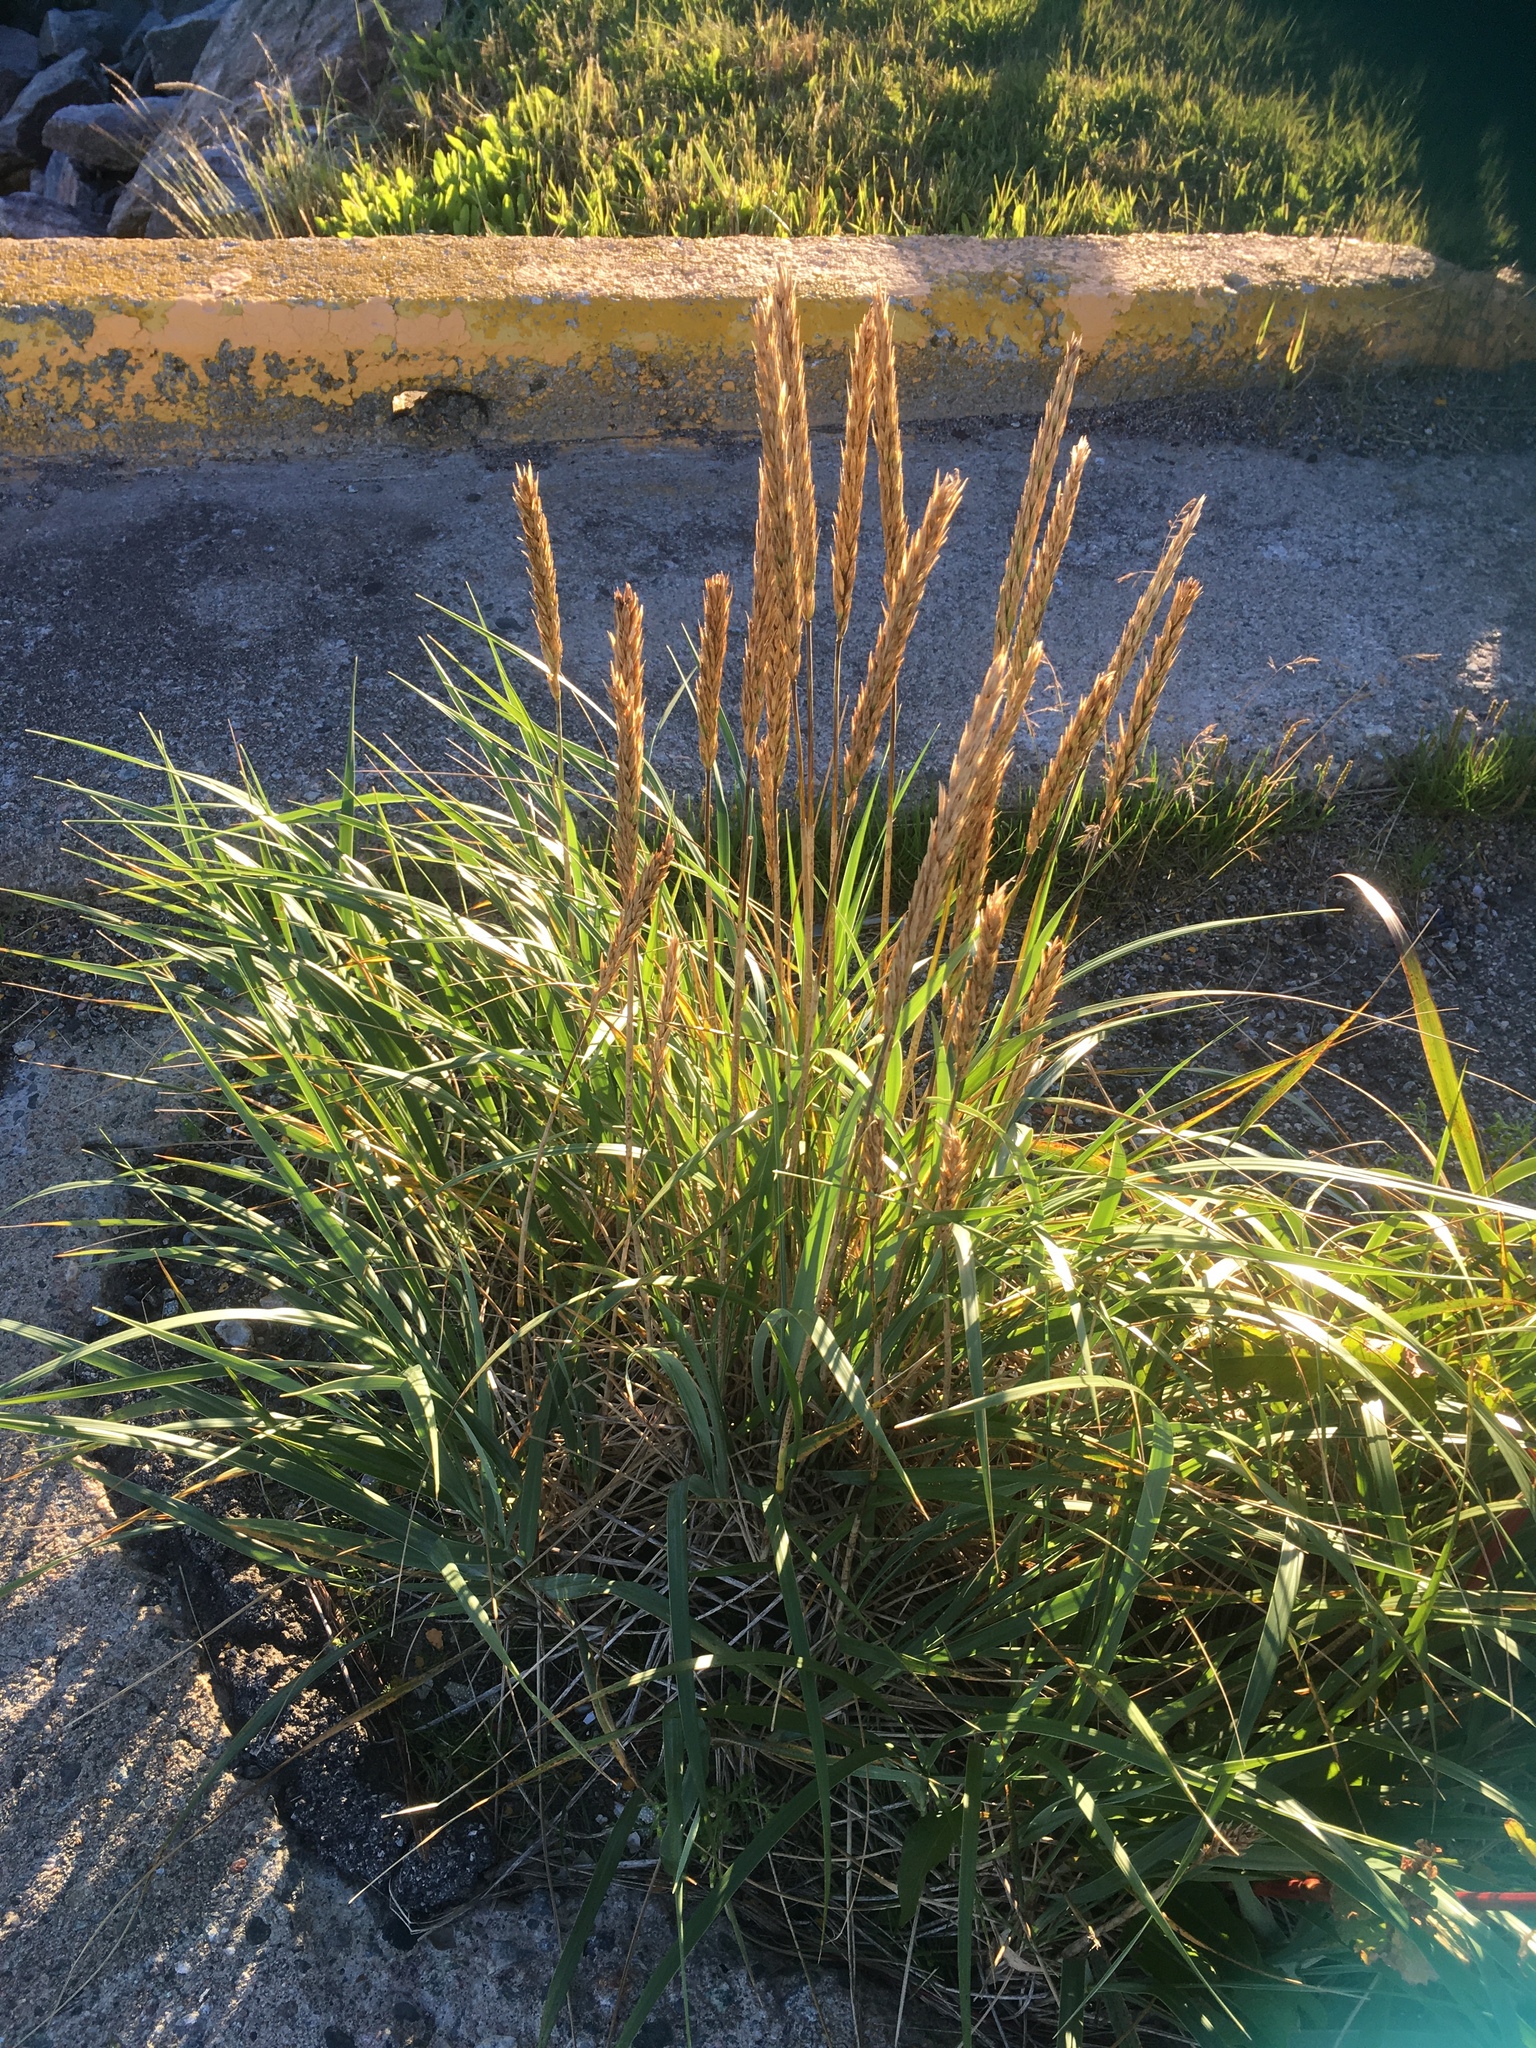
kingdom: Plantae
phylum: Tracheophyta
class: Liliopsida
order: Poales
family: Poaceae
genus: Leymus
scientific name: Leymus mollis
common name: American dune grass
